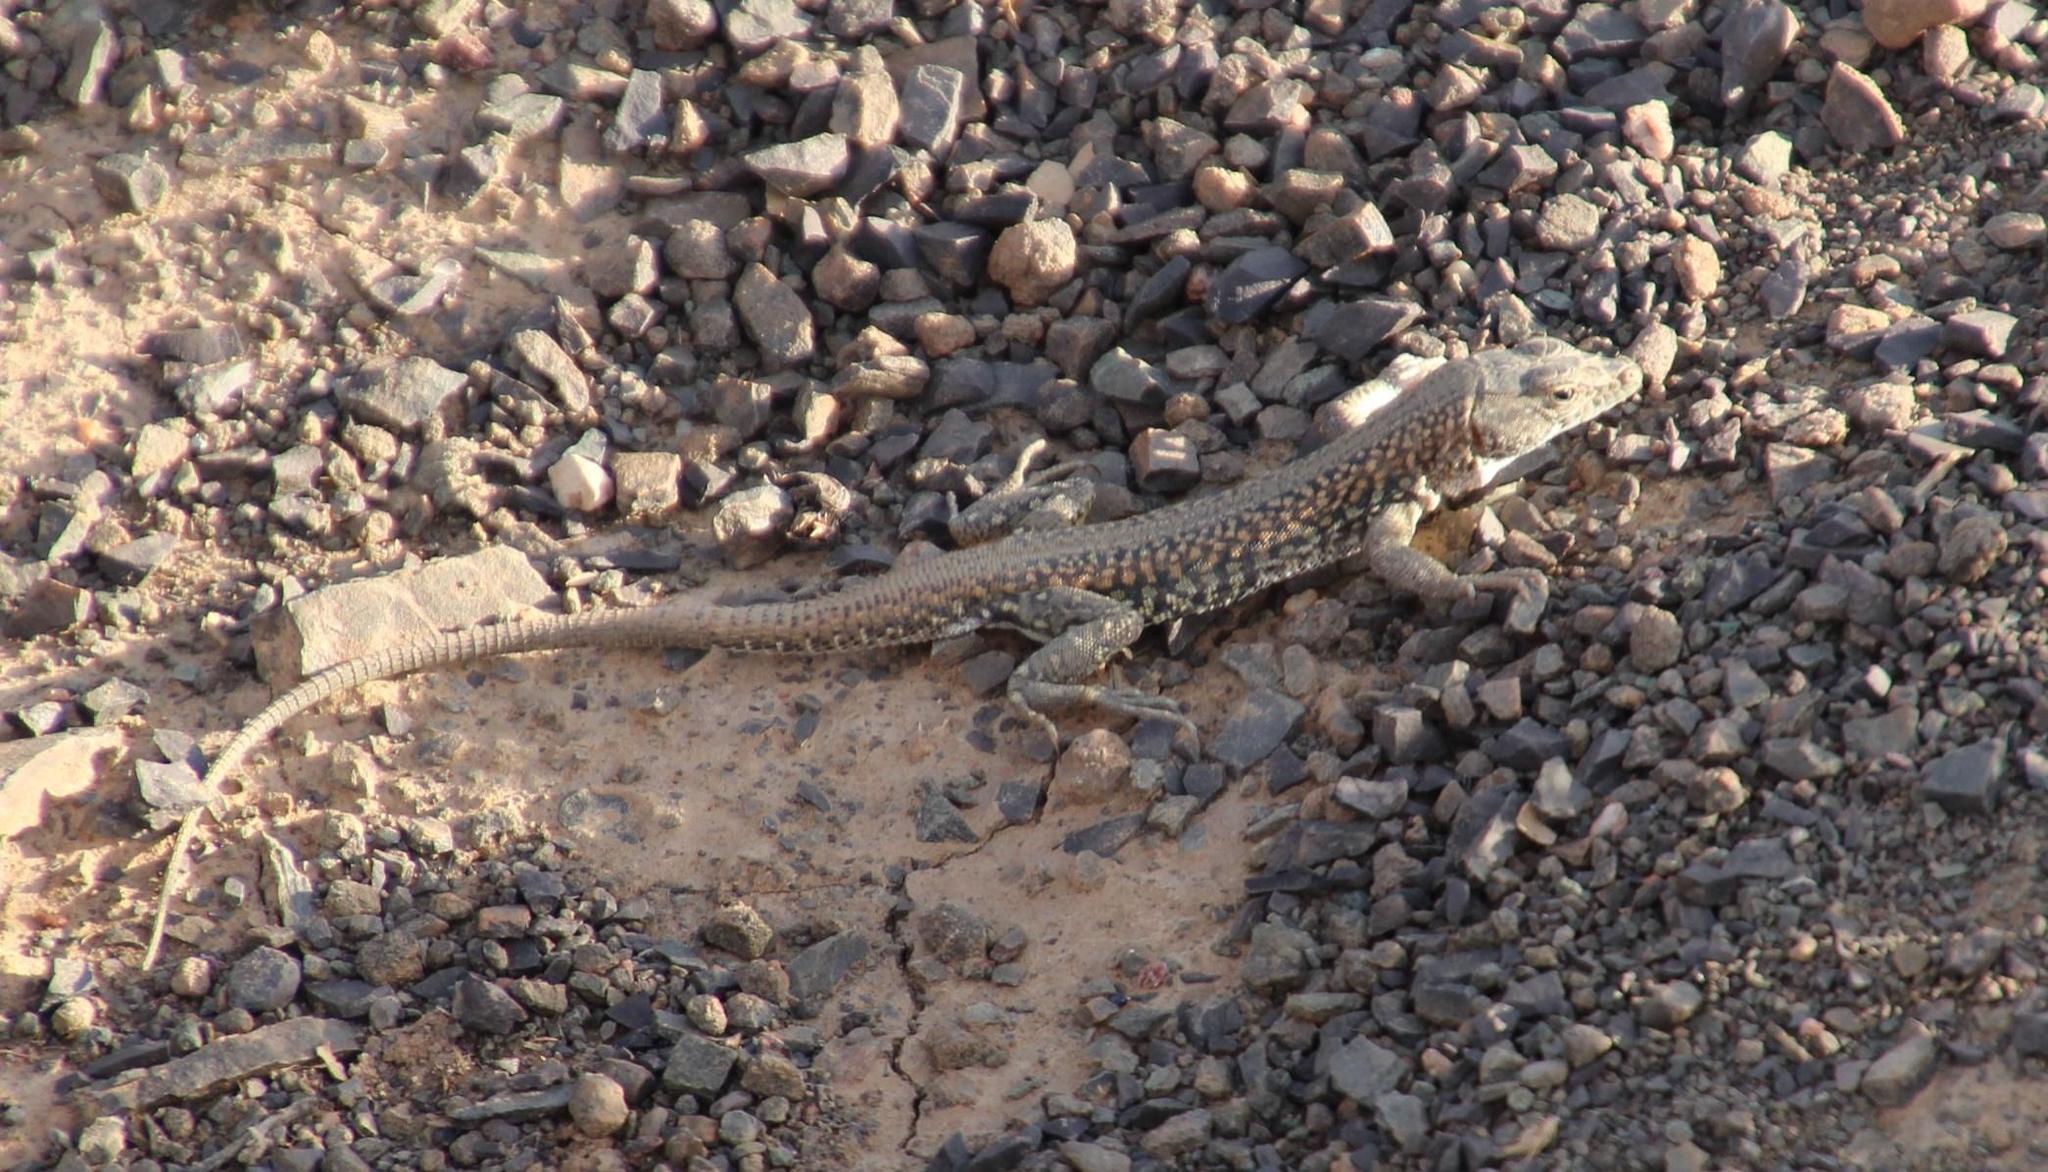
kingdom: Animalia
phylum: Chordata
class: Squamata
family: Lacertidae
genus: Pedioplanis
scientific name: Pedioplanis laticeps
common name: Karoo sand lizard
